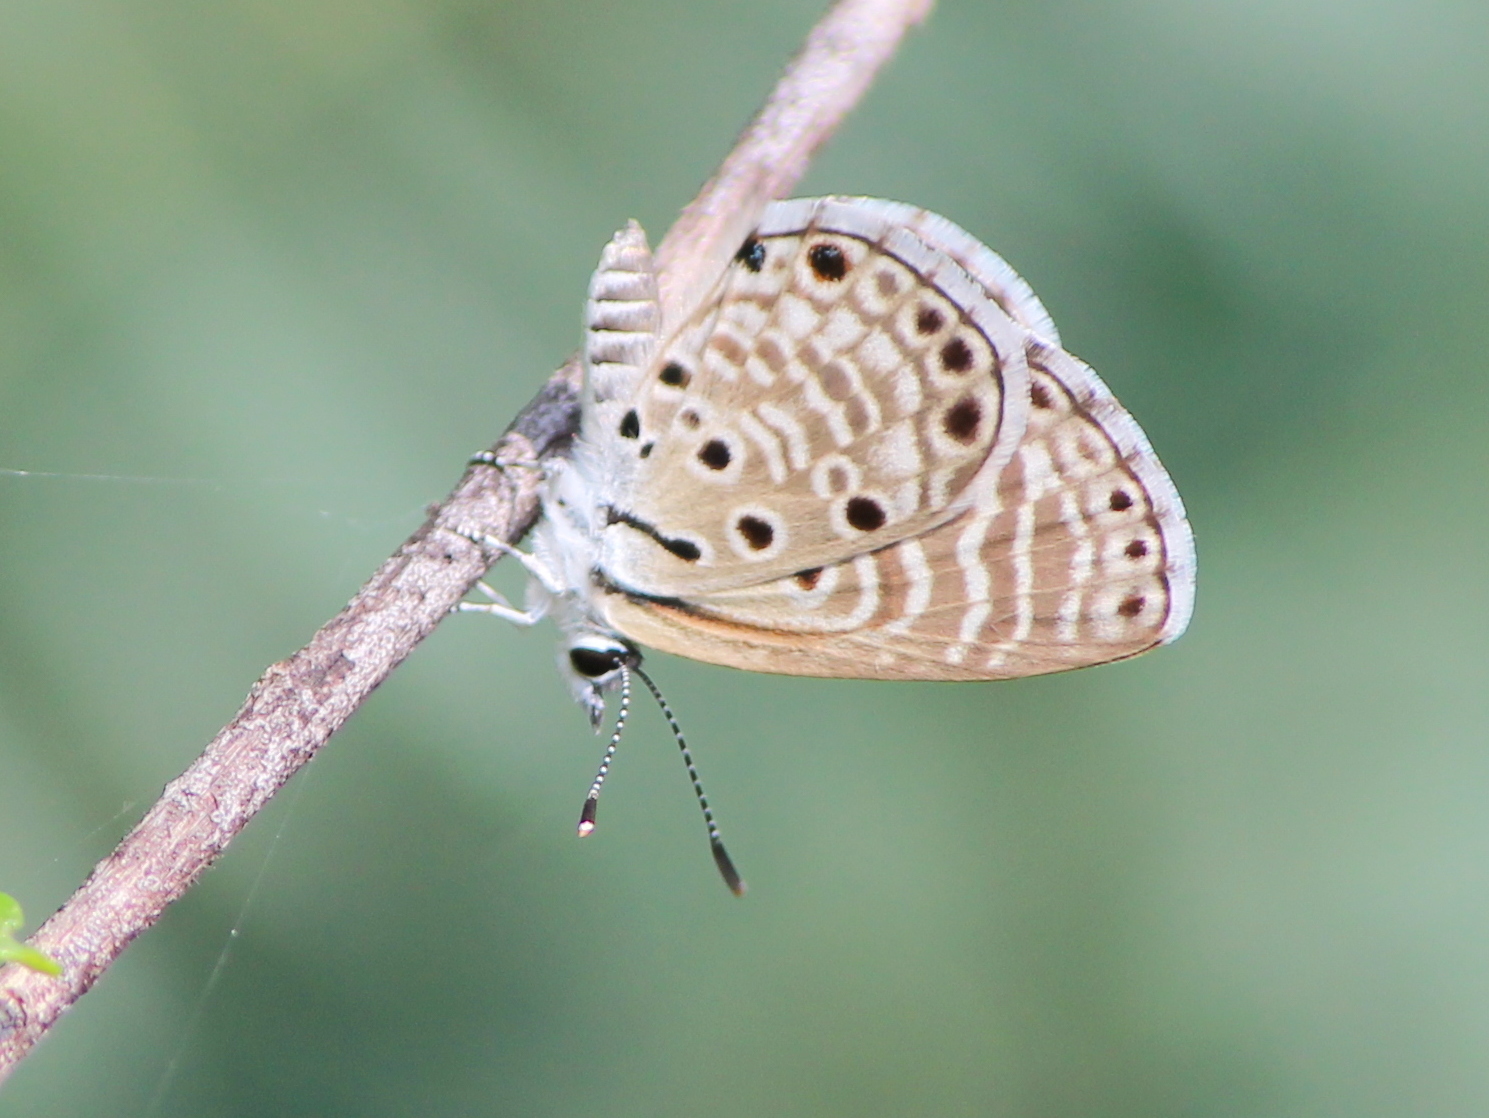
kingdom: Animalia
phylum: Arthropoda
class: Insecta
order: Lepidoptera
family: Lycaenidae
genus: Azanus
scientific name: Azanus jesous
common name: African babul blue
